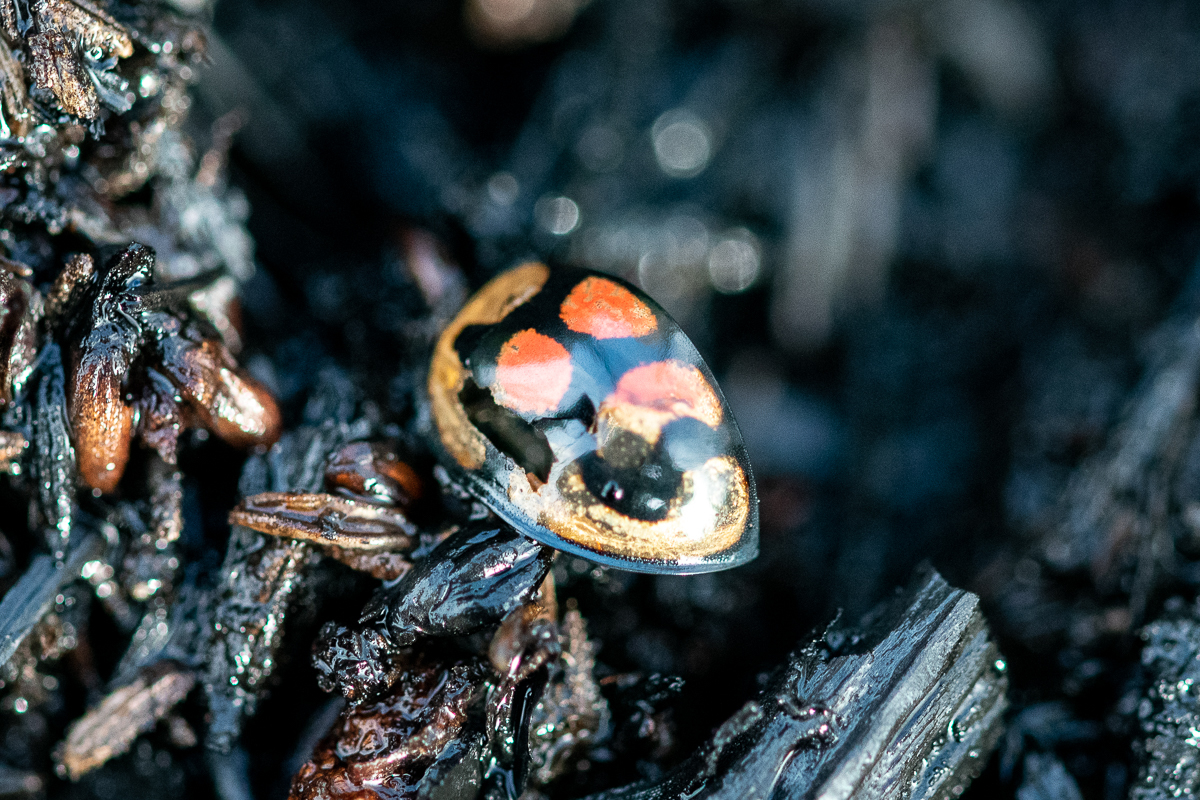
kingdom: Animalia
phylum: Arthropoda
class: Insecta
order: Coleoptera
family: Coccinellidae
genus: Cheilomenes
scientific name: Cheilomenes lunata
